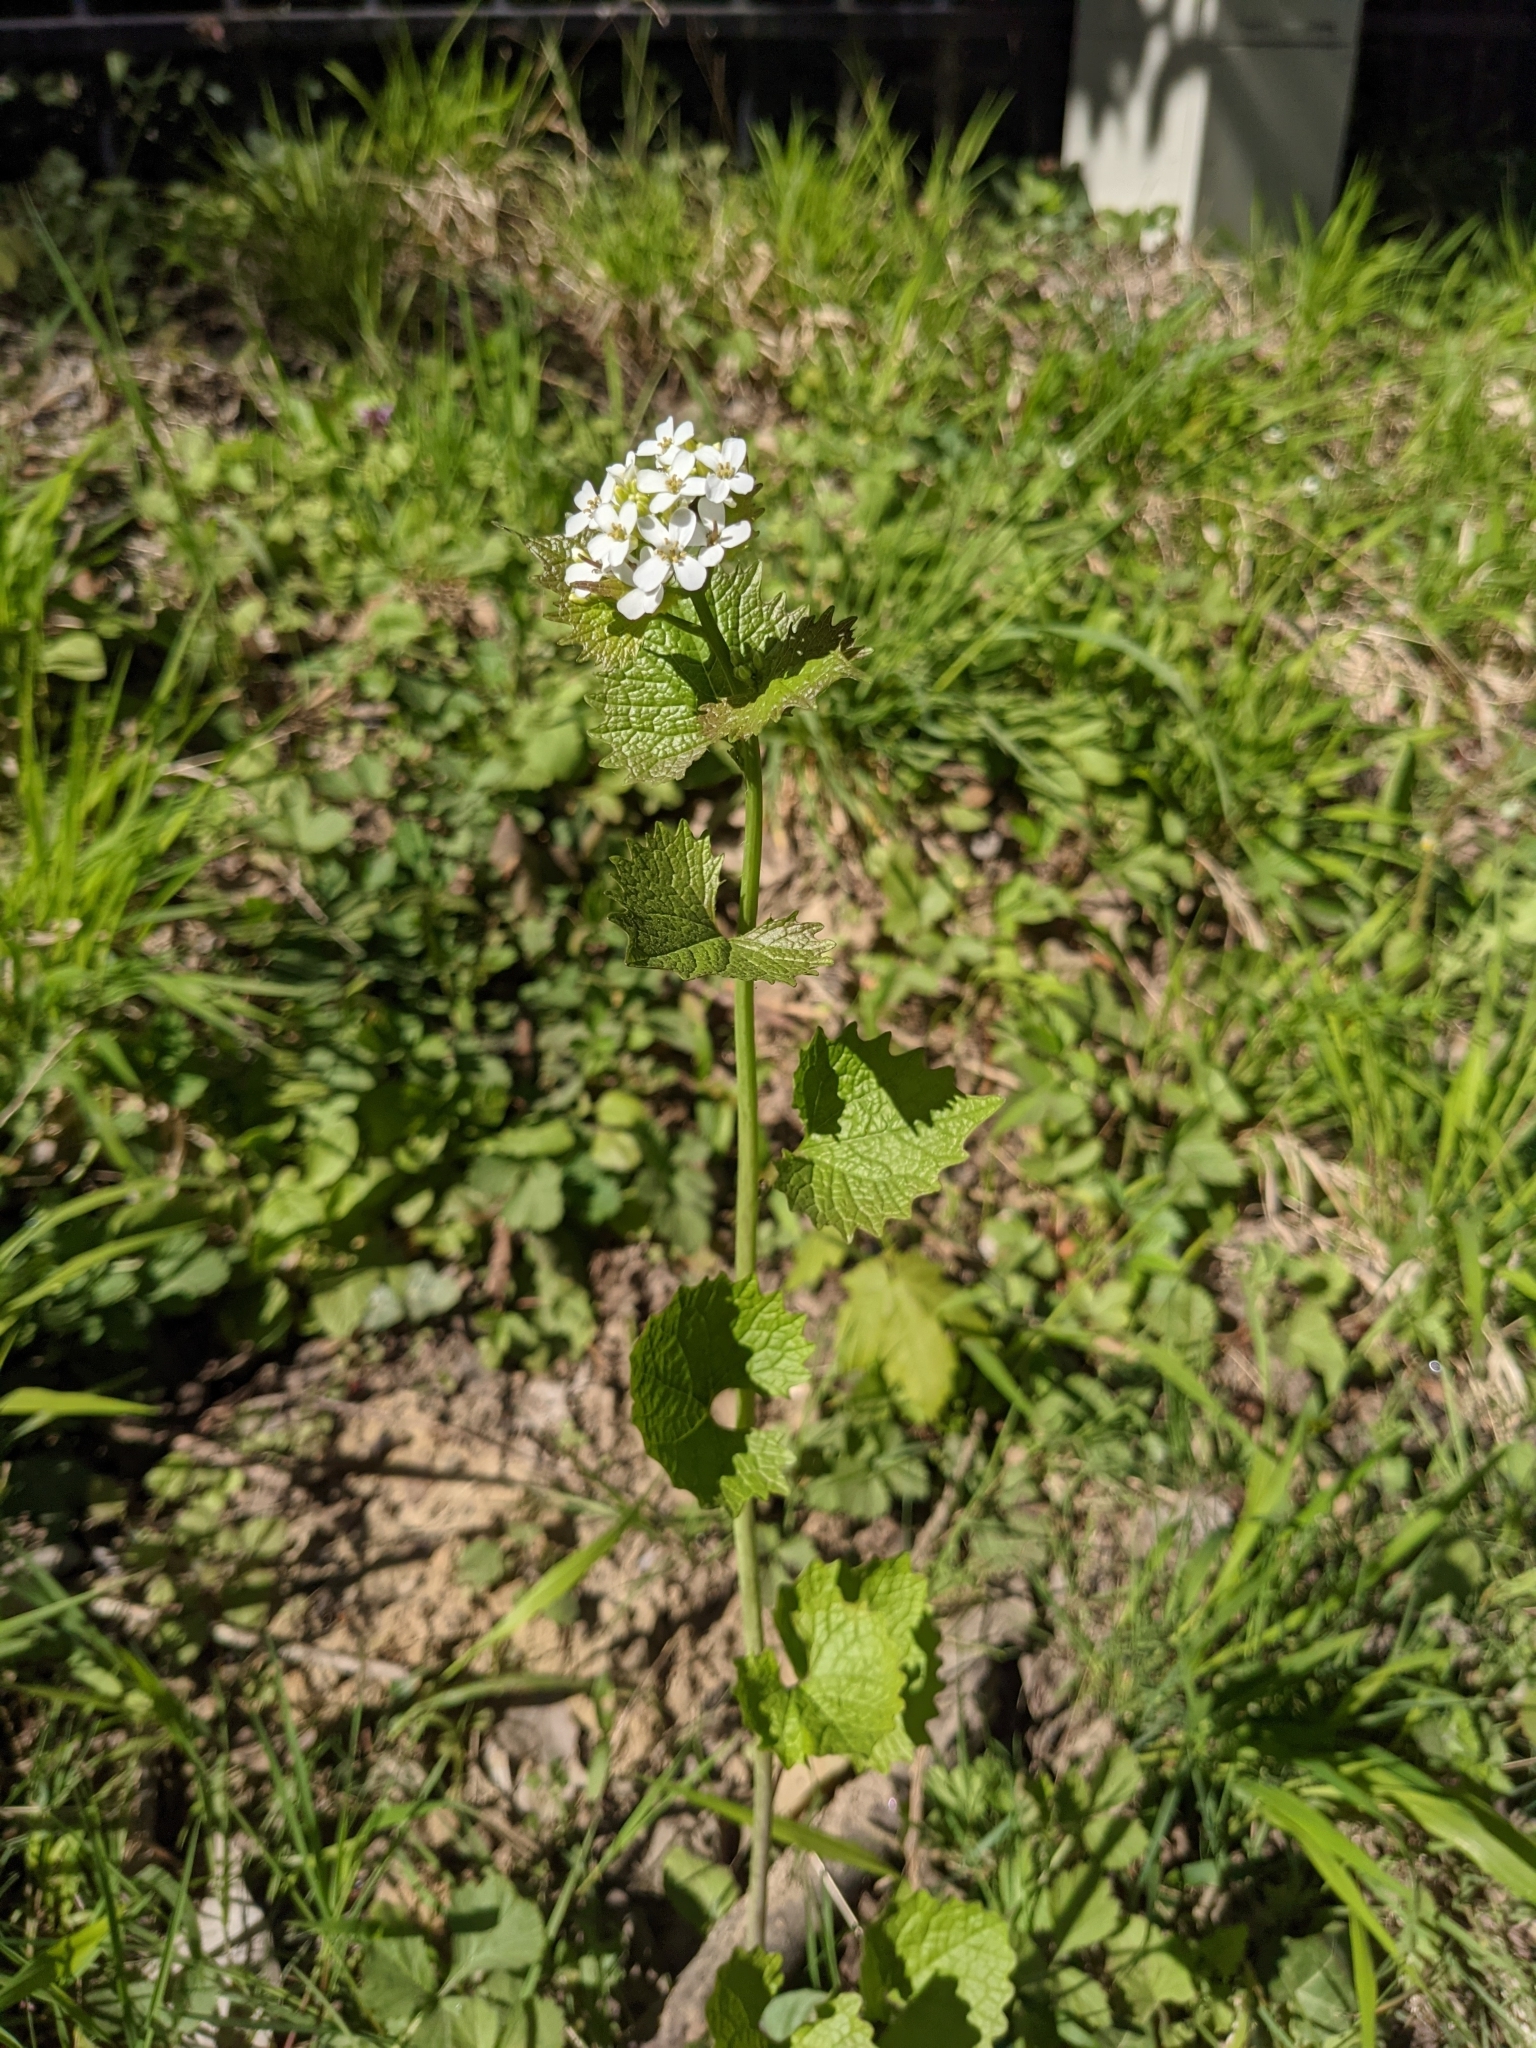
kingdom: Plantae
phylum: Tracheophyta
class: Magnoliopsida
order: Brassicales
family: Brassicaceae
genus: Alliaria
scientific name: Alliaria petiolata
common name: Garlic mustard
